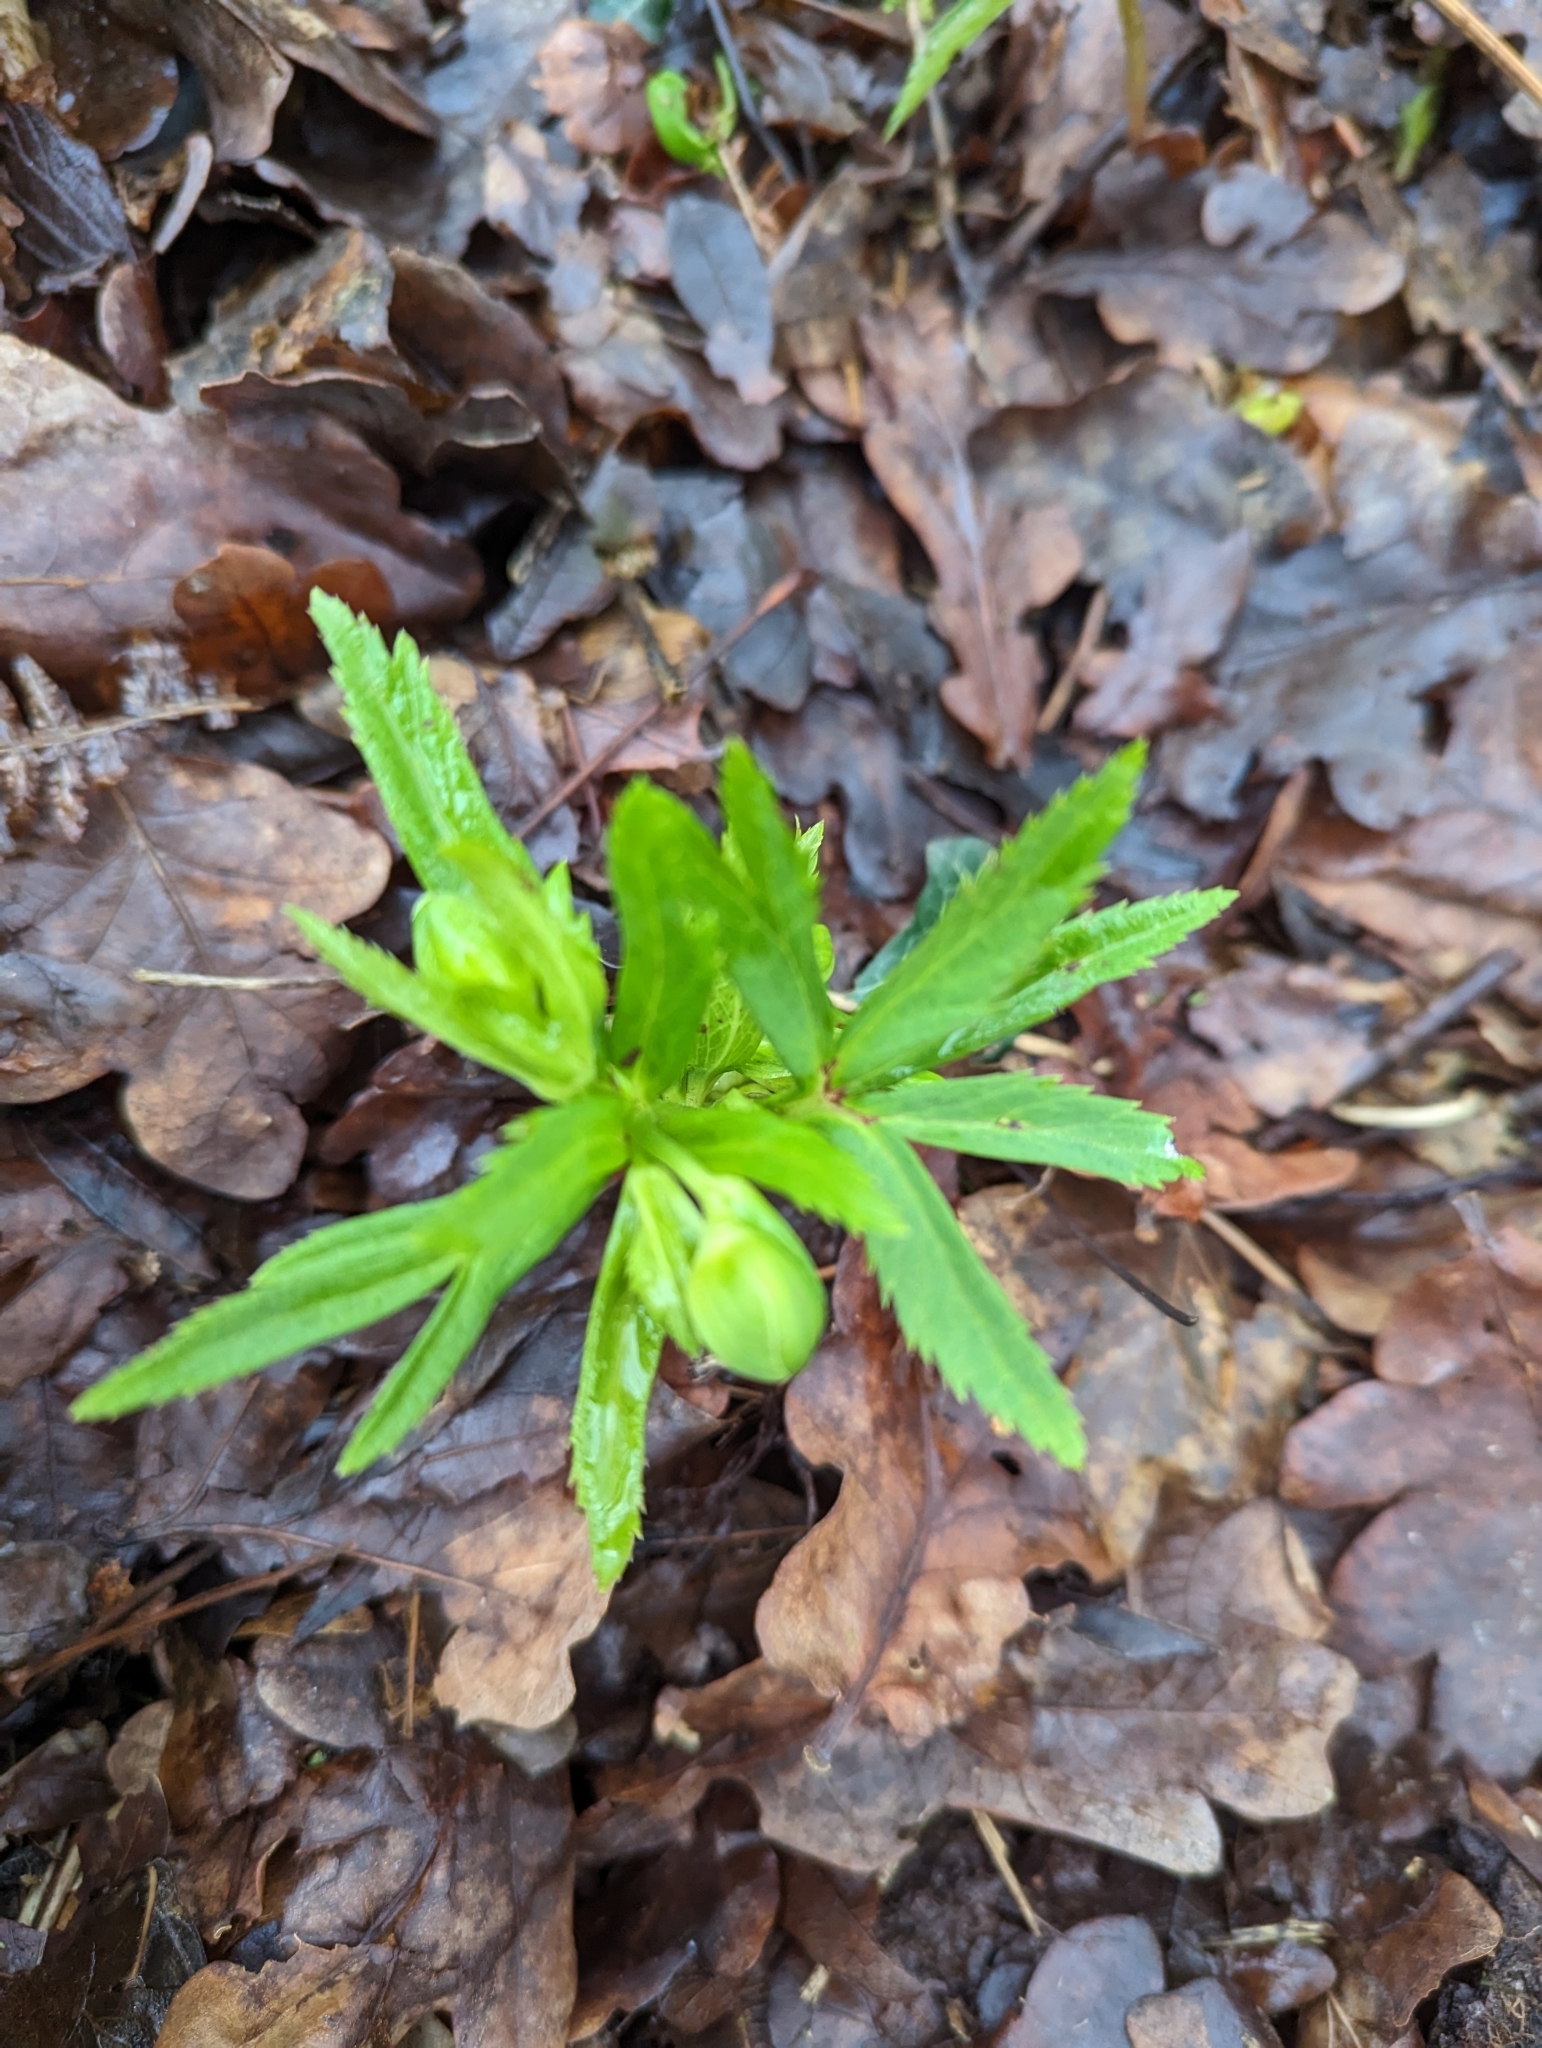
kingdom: Plantae
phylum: Tracheophyta
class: Magnoliopsida
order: Ranunculales
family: Ranunculaceae
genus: Helleborus
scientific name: Helleborus viridis
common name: Green hellebore
